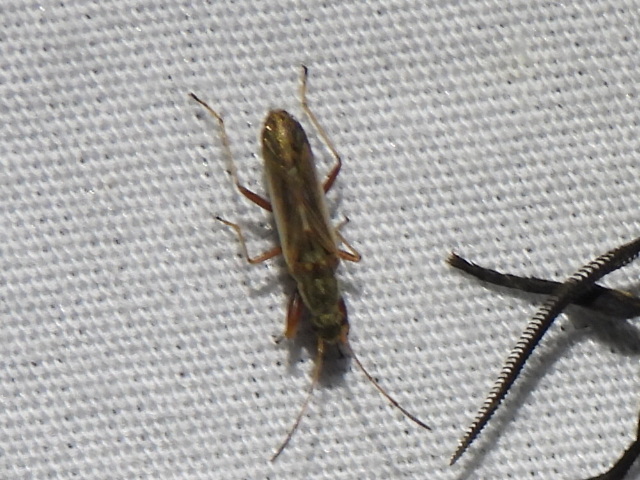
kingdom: Animalia
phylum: Arthropoda
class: Insecta
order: Hemiptera
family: Rhyparochromidae
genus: Paromius
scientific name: Paromius longulus
